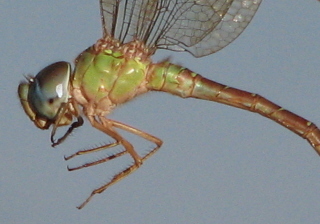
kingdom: Animalia
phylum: Arthropoda
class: Insecta
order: Odonata
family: Aeshnidae
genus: Triacanthagyna
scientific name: Triacanthagyna septima
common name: Pale-green darner
